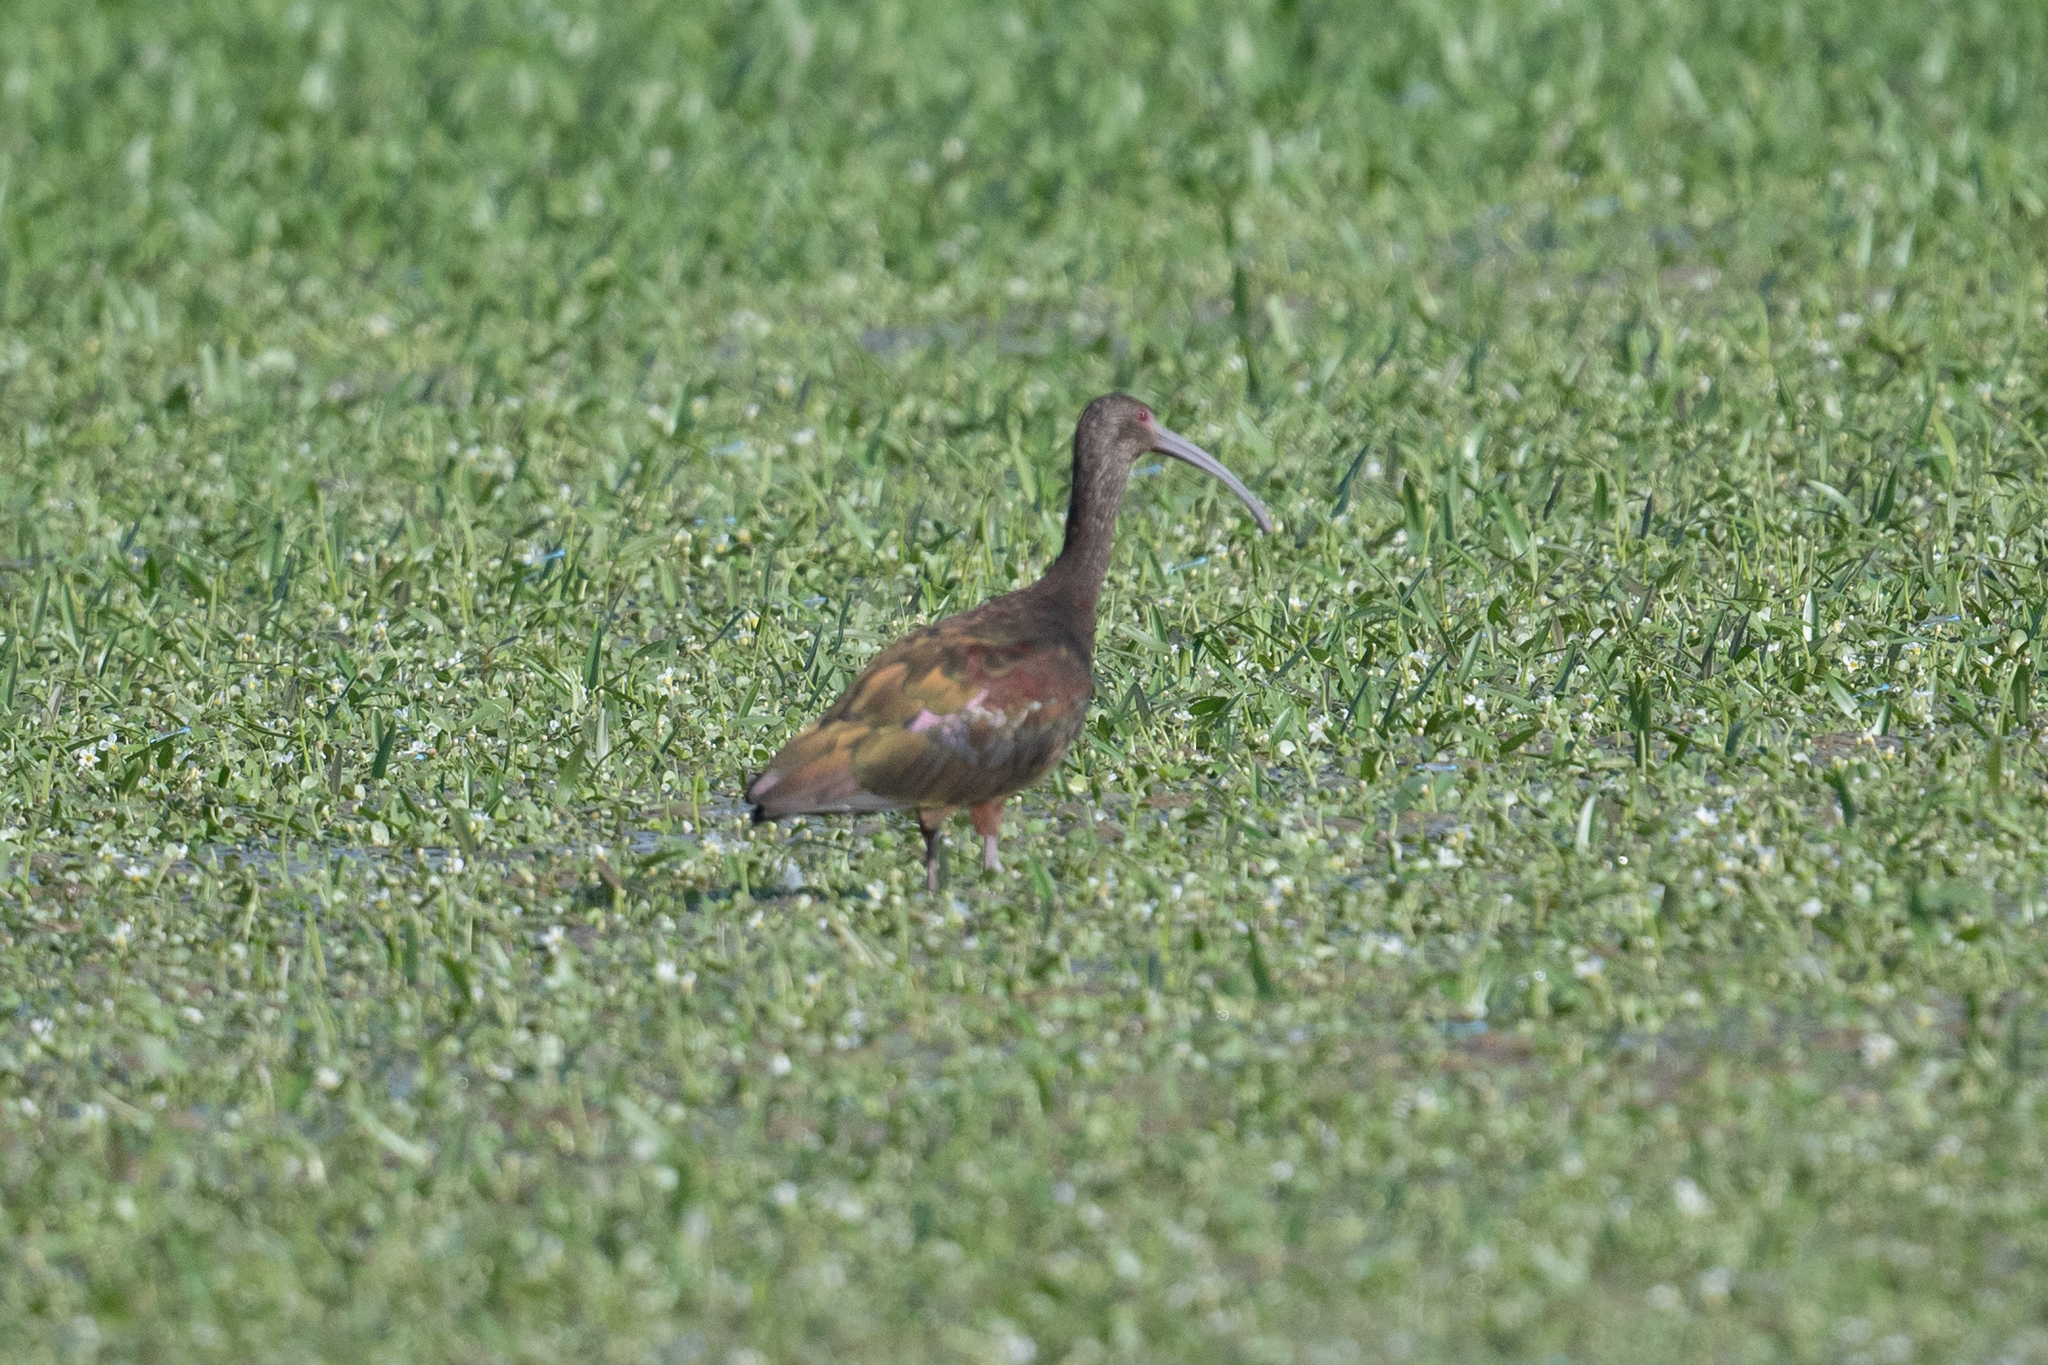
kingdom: Animalia
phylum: Chordata
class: Aves
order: Pelecaniformes
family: Threskiornithidae
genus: Plegadis
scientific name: Plegadis chihi
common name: White-faced ibis
